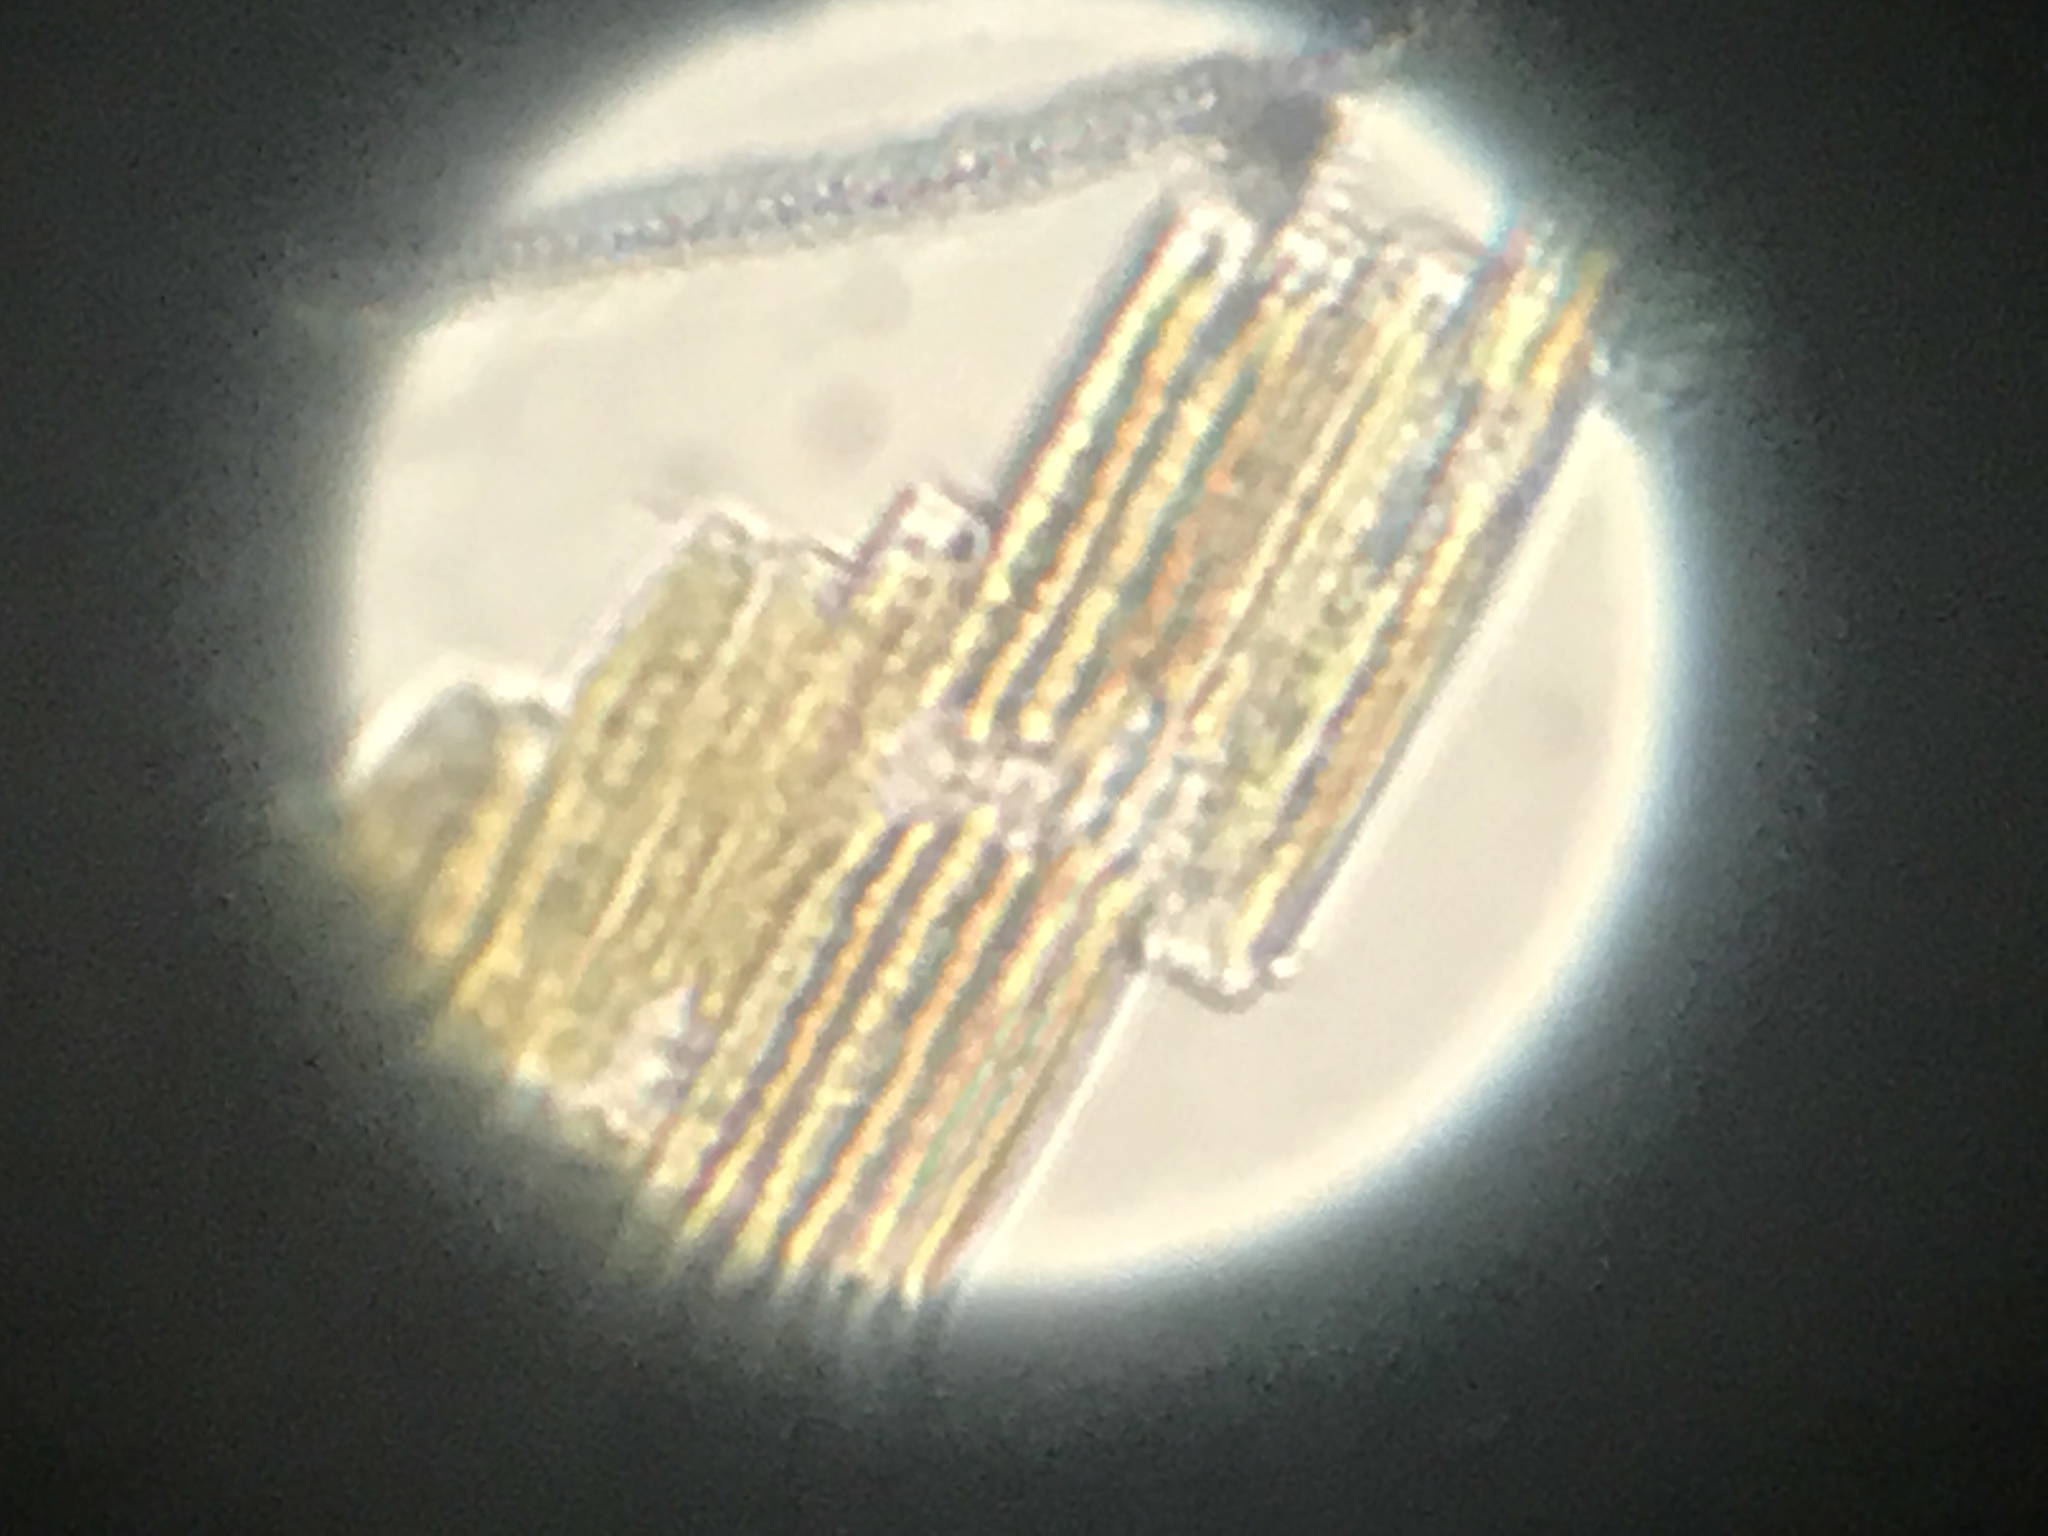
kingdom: Chromista
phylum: Ochrophyta
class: Bacillariophyceae
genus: Vibrio
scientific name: Vibrio paxillifer
